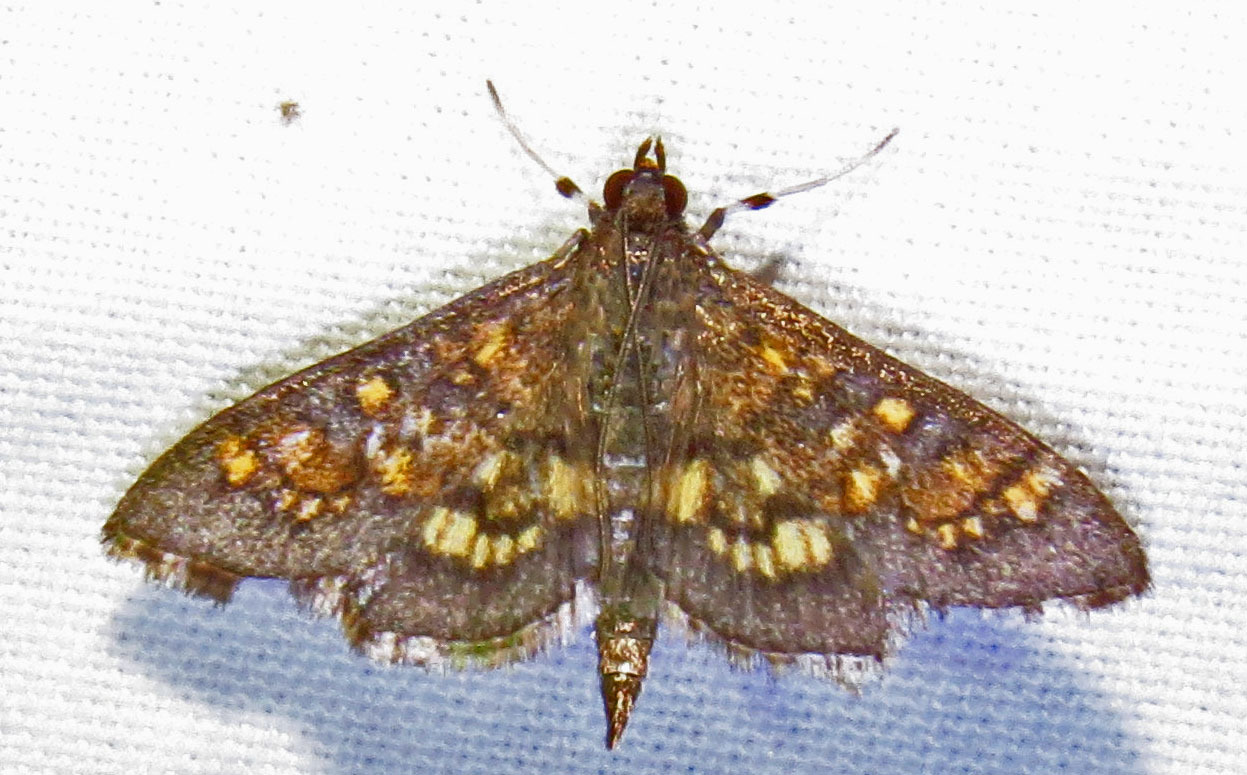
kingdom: Animalia
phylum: Arthropoda
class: Insecta
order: Lepidoptera
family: Crambidae
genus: Cryptographis
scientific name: Cryptographis elealis
